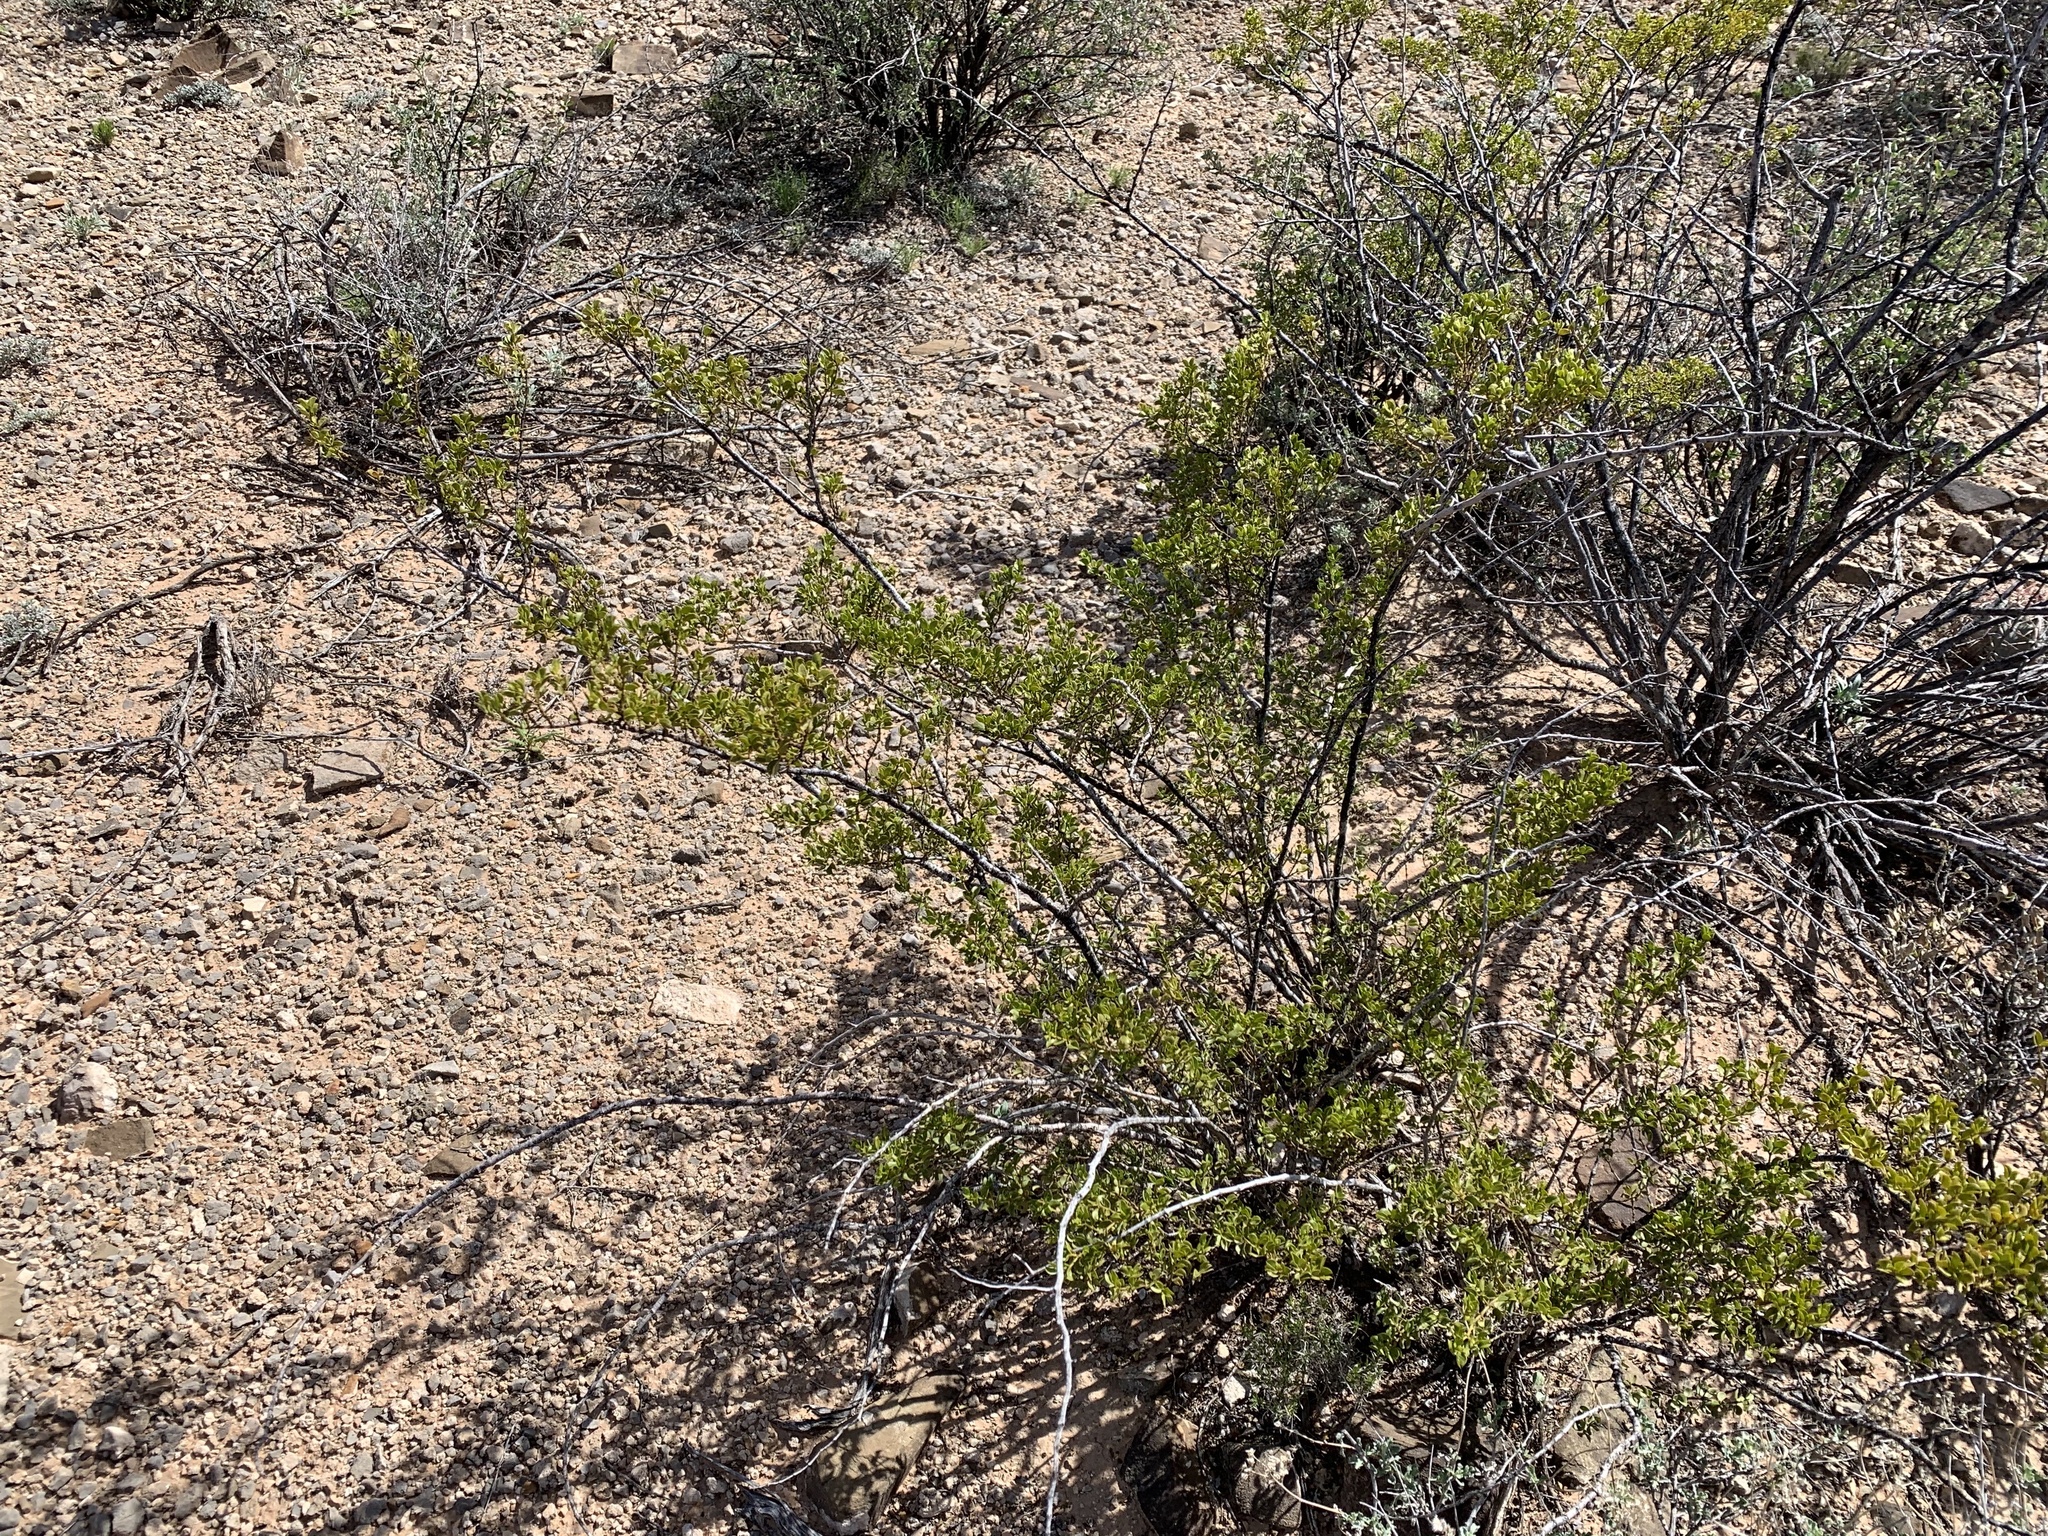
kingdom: Plantae
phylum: Tracheophyta
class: Magnoliopsida
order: Zygophyllales
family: Zygophyllaceae
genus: Larrea
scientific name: Larrea tridentata
